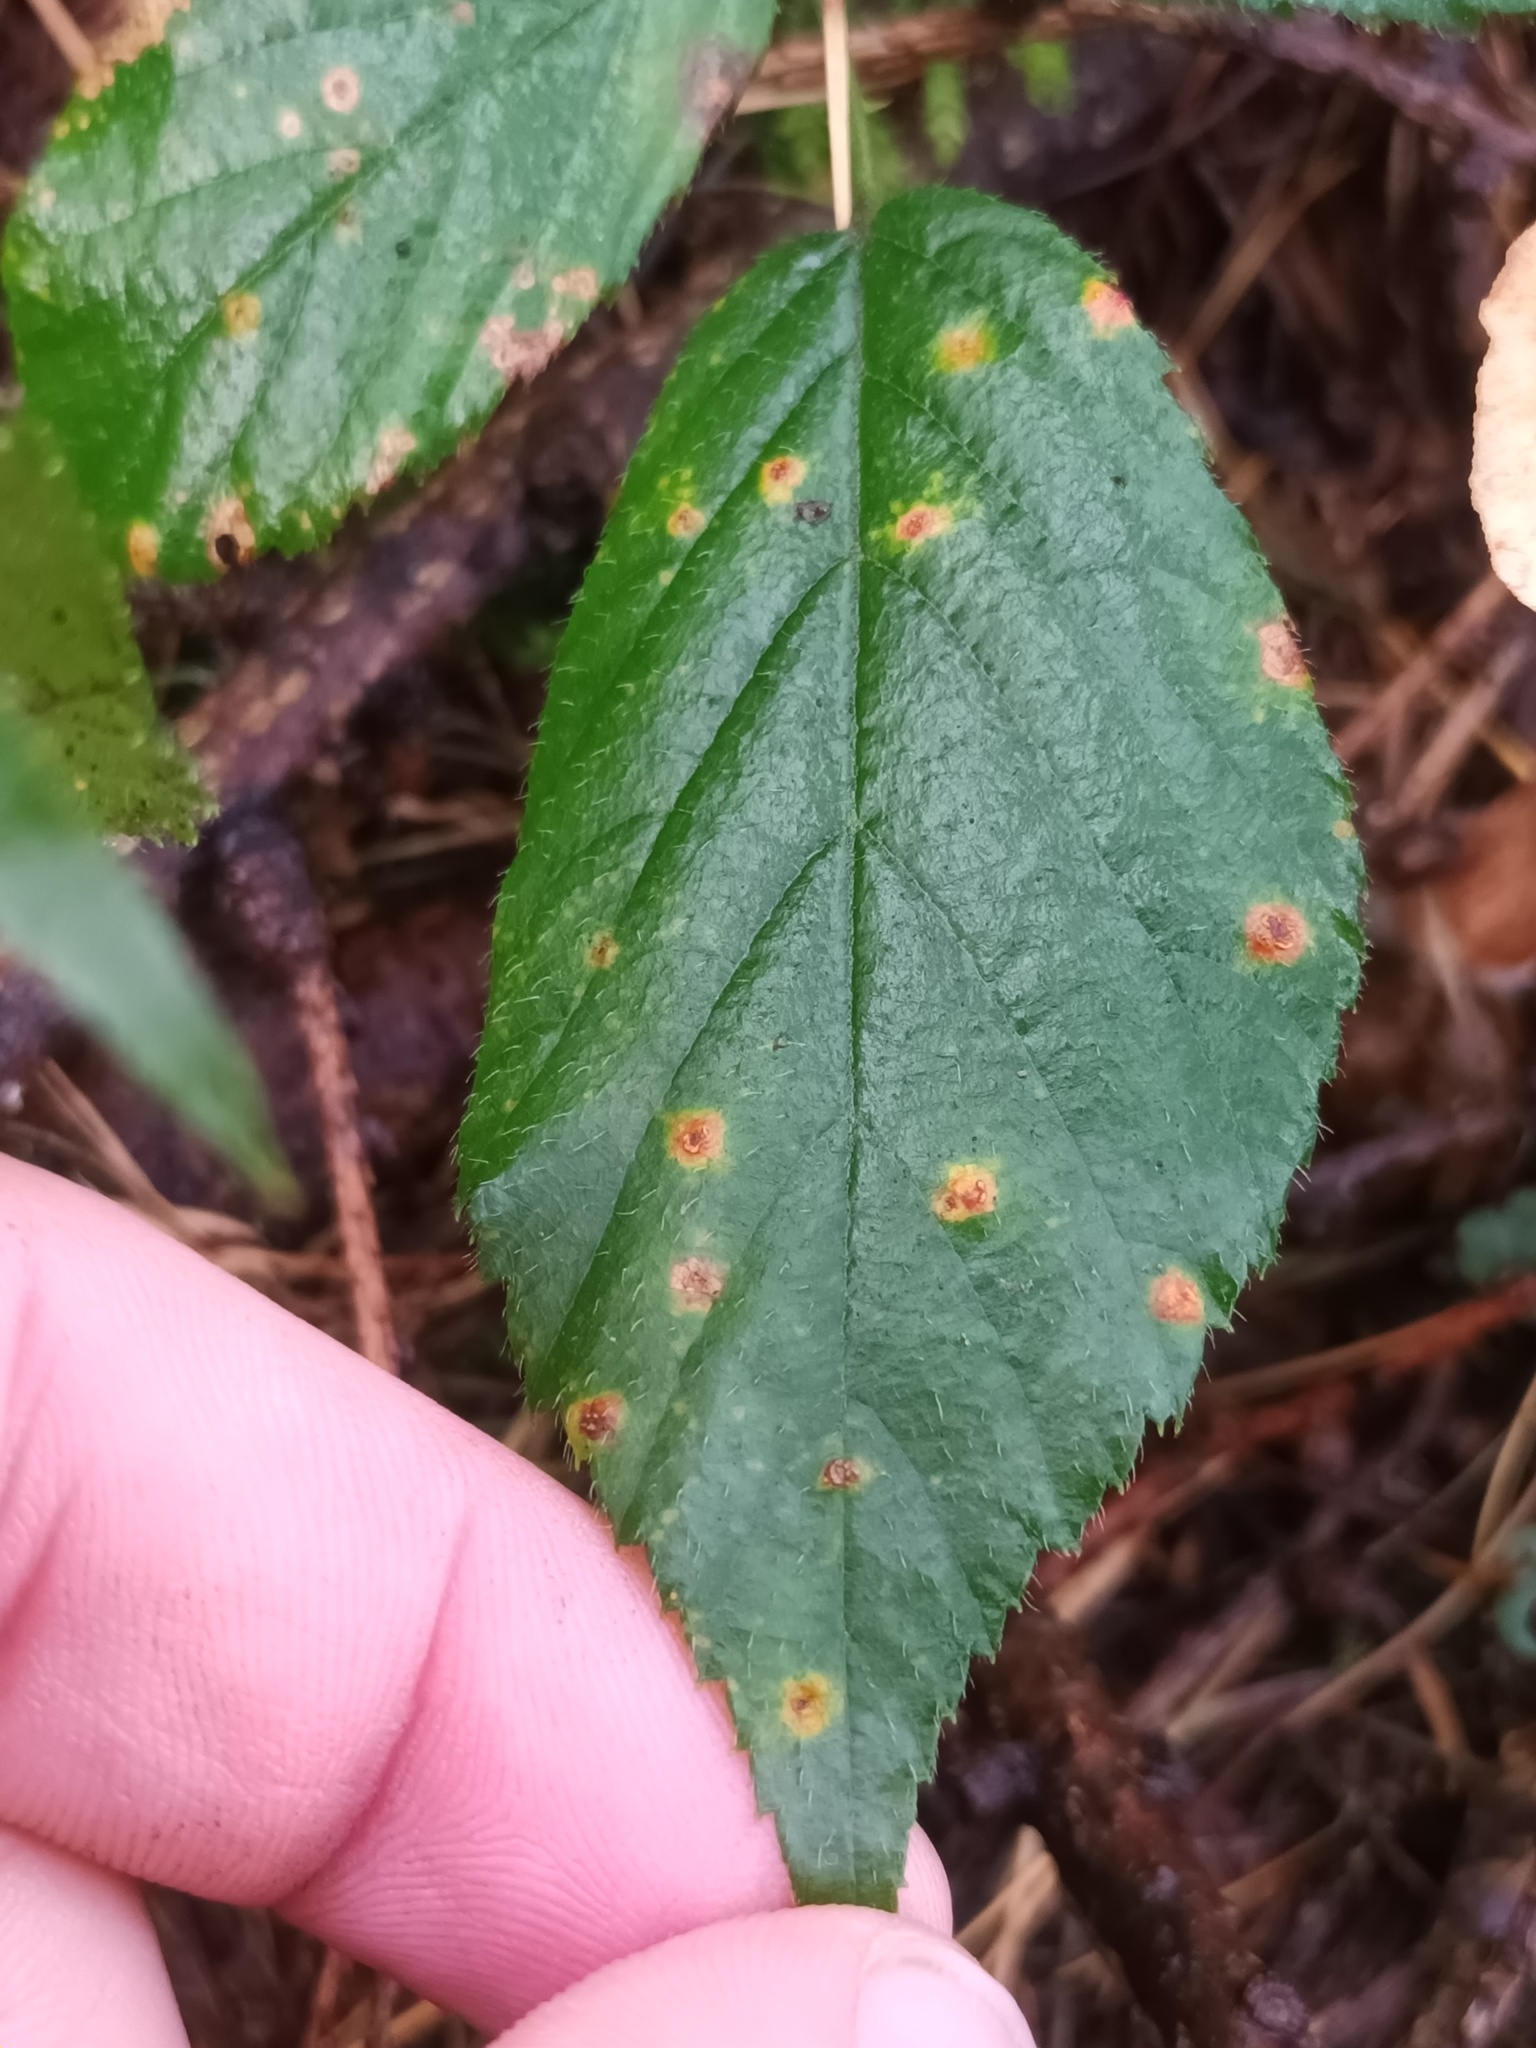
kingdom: Fungi
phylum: Basidiomycota
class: Pucciniomycetes
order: Pucciniales
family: Phragmidiaceae
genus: Kuehneola
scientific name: Kuehneola uredinis
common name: Bramble stem rust
